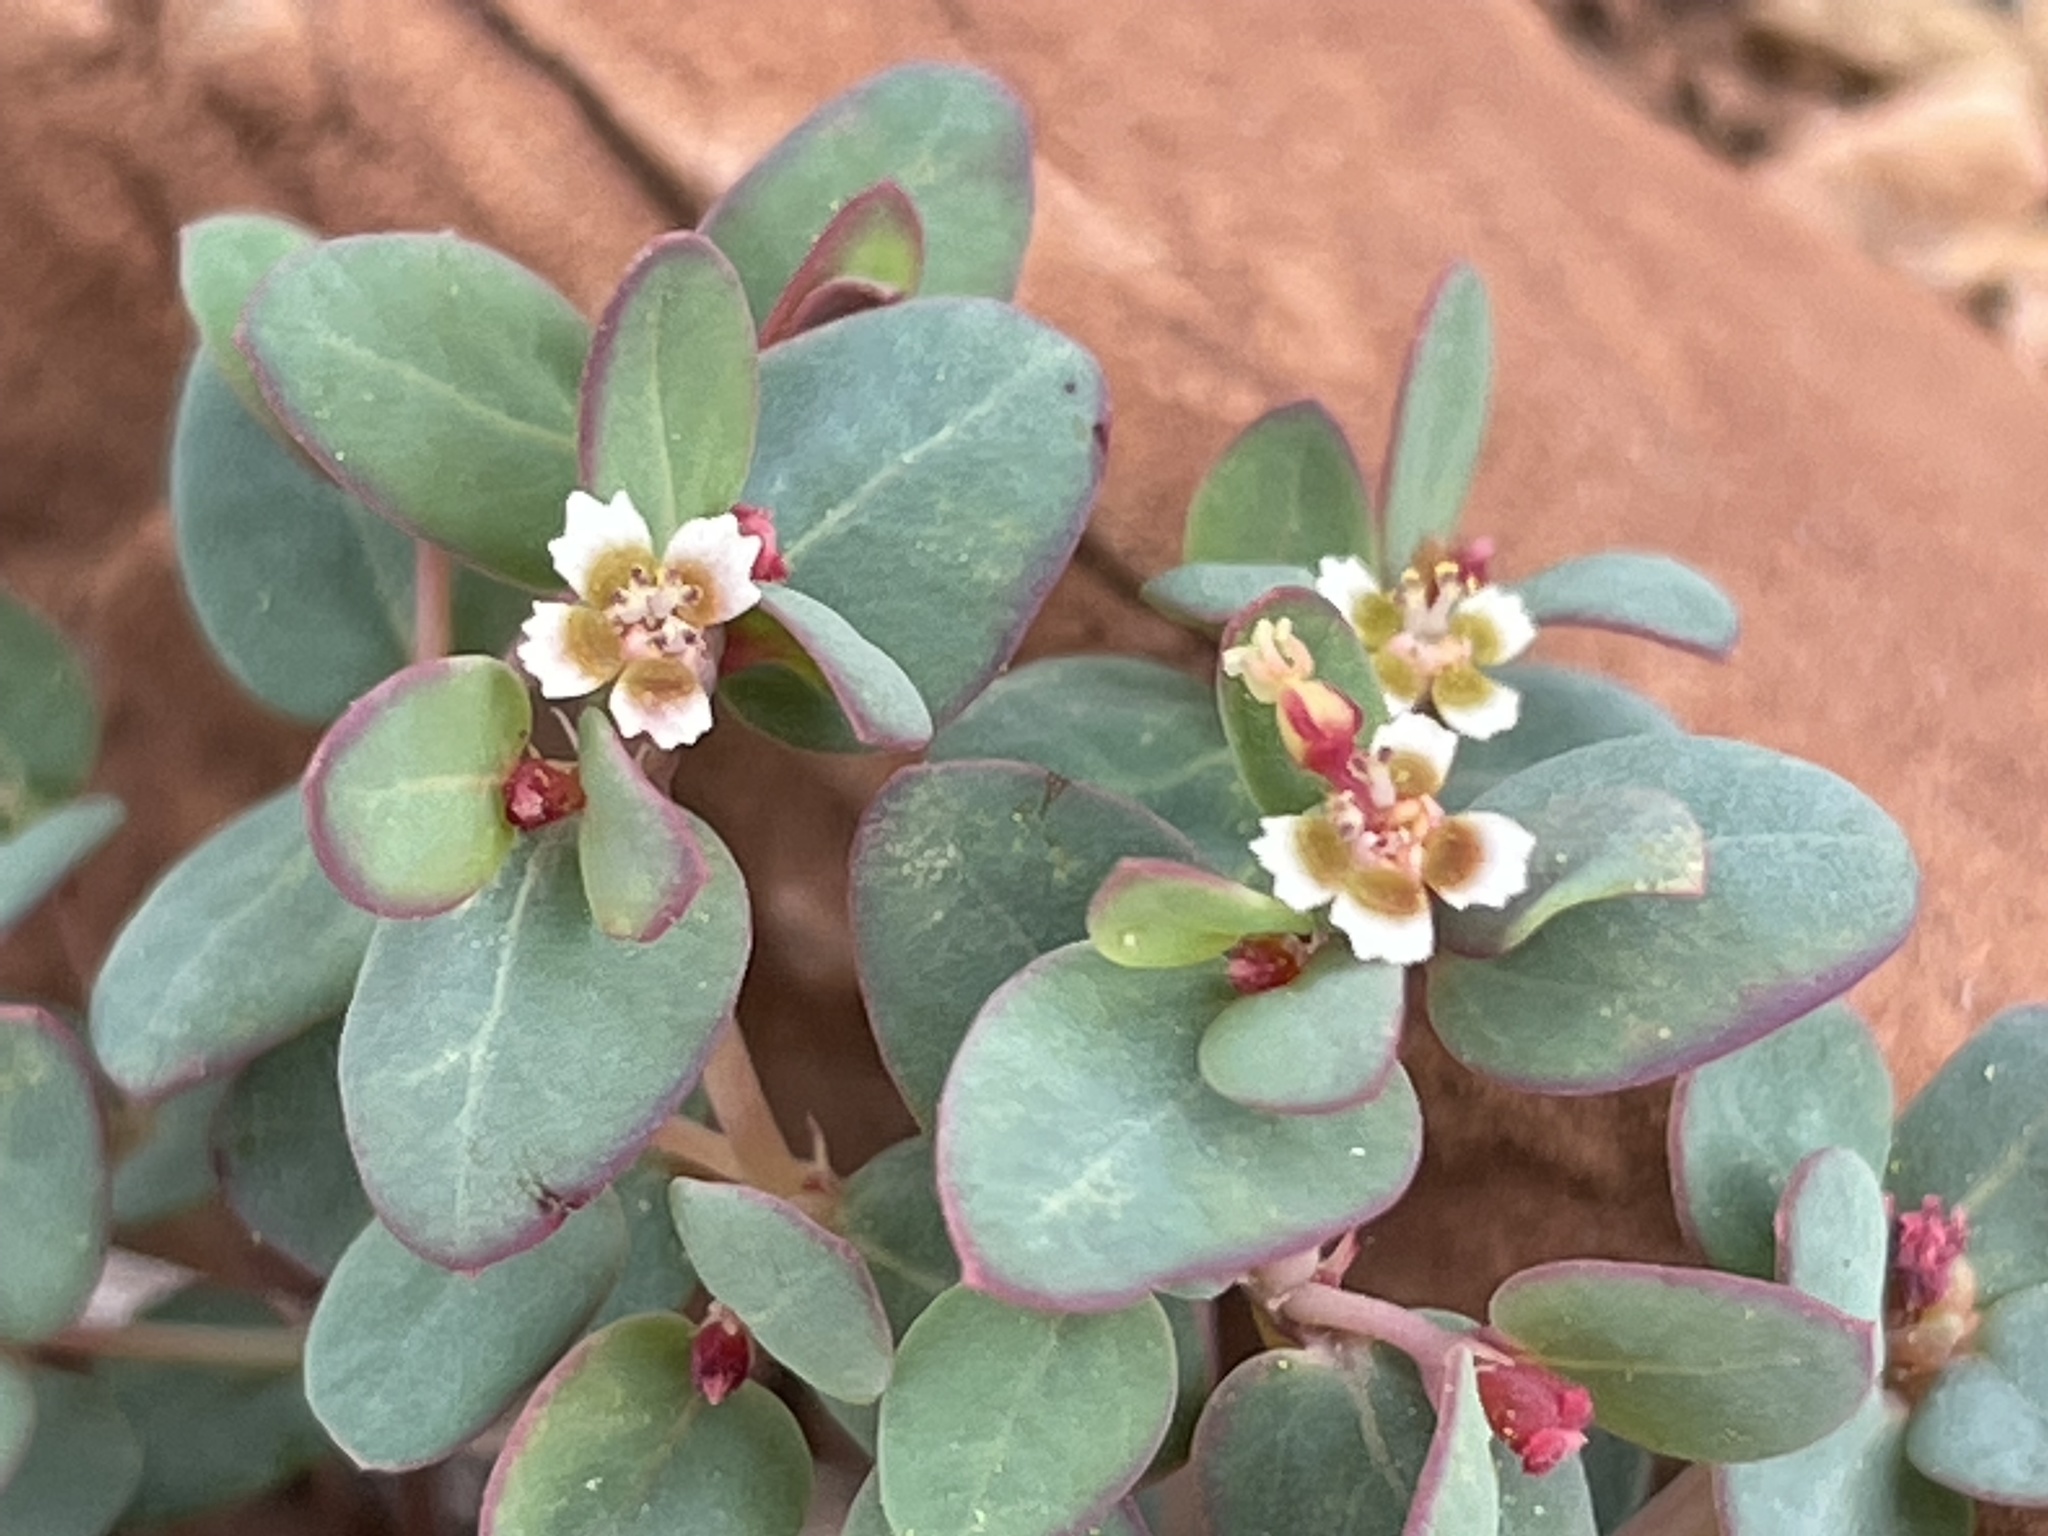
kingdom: Plantae
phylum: Tracheophyta
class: Magnoliopsida
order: Malpighiales
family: Euphorbiaceae
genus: Euphorbia
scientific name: Euphorbia fendleri
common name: Fendler's euphorbia
